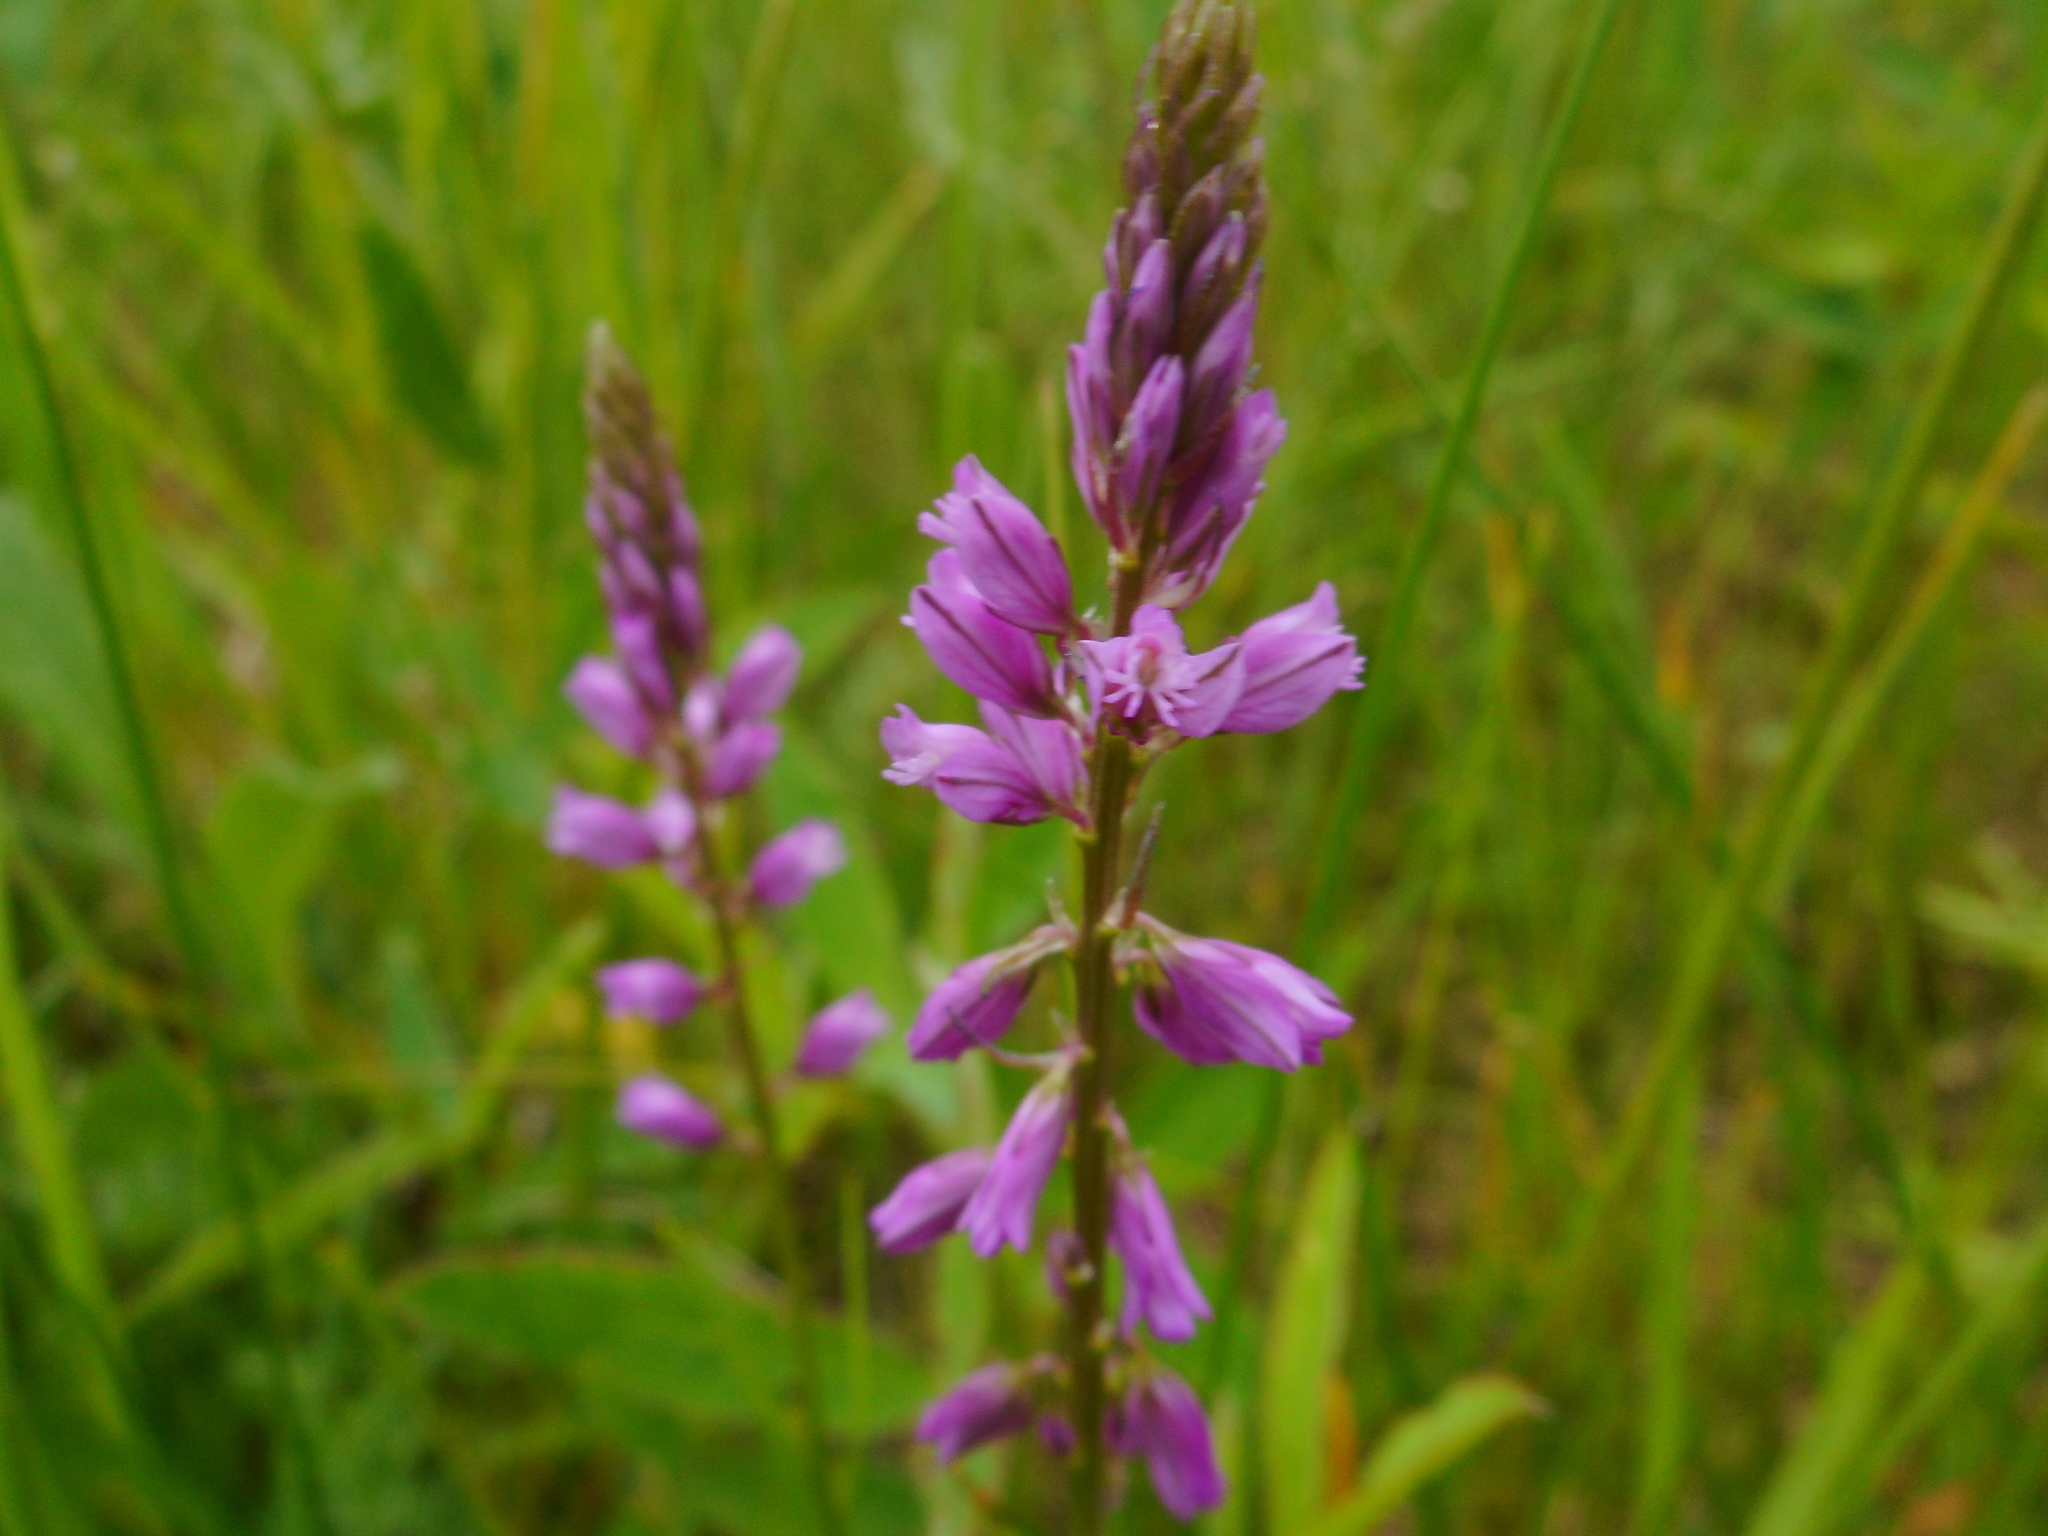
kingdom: Plantae
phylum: Tracheophyta
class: Magnoliopsida
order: Fabales
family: Polygalaceae
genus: Polygala
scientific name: Polygala comosa
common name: Tufted milkwort
